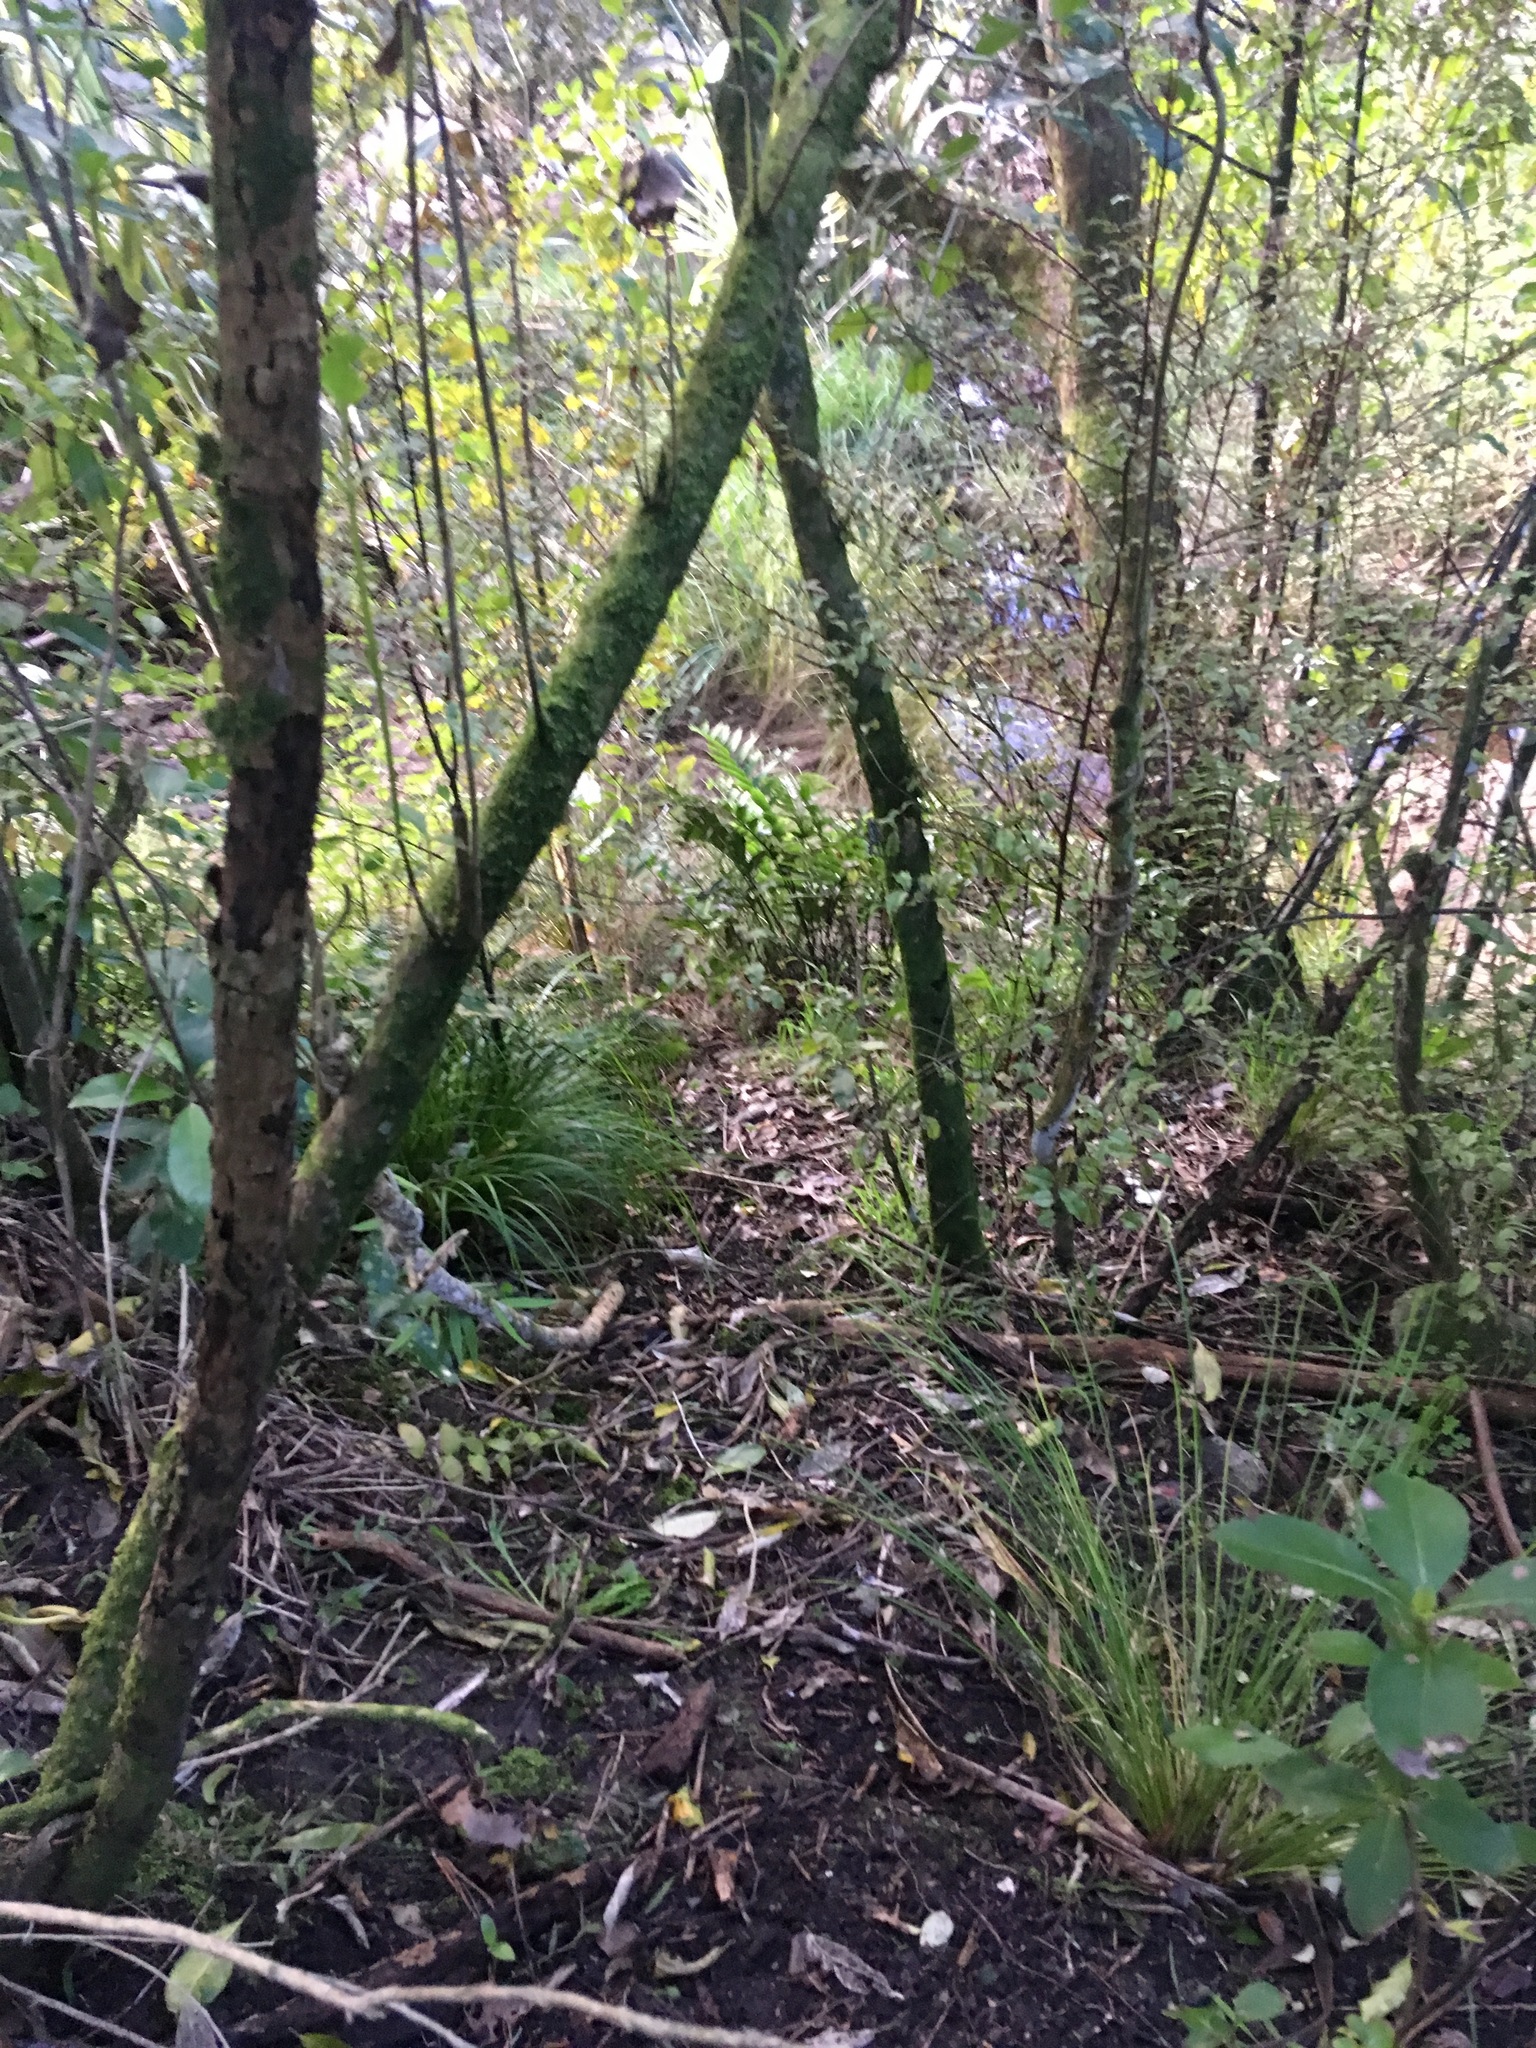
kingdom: Plantae
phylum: Tracheophyta
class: Magnoliopsida
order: Gentianales
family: Rubiaceae
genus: Coprosma
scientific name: Coprosma robusta
